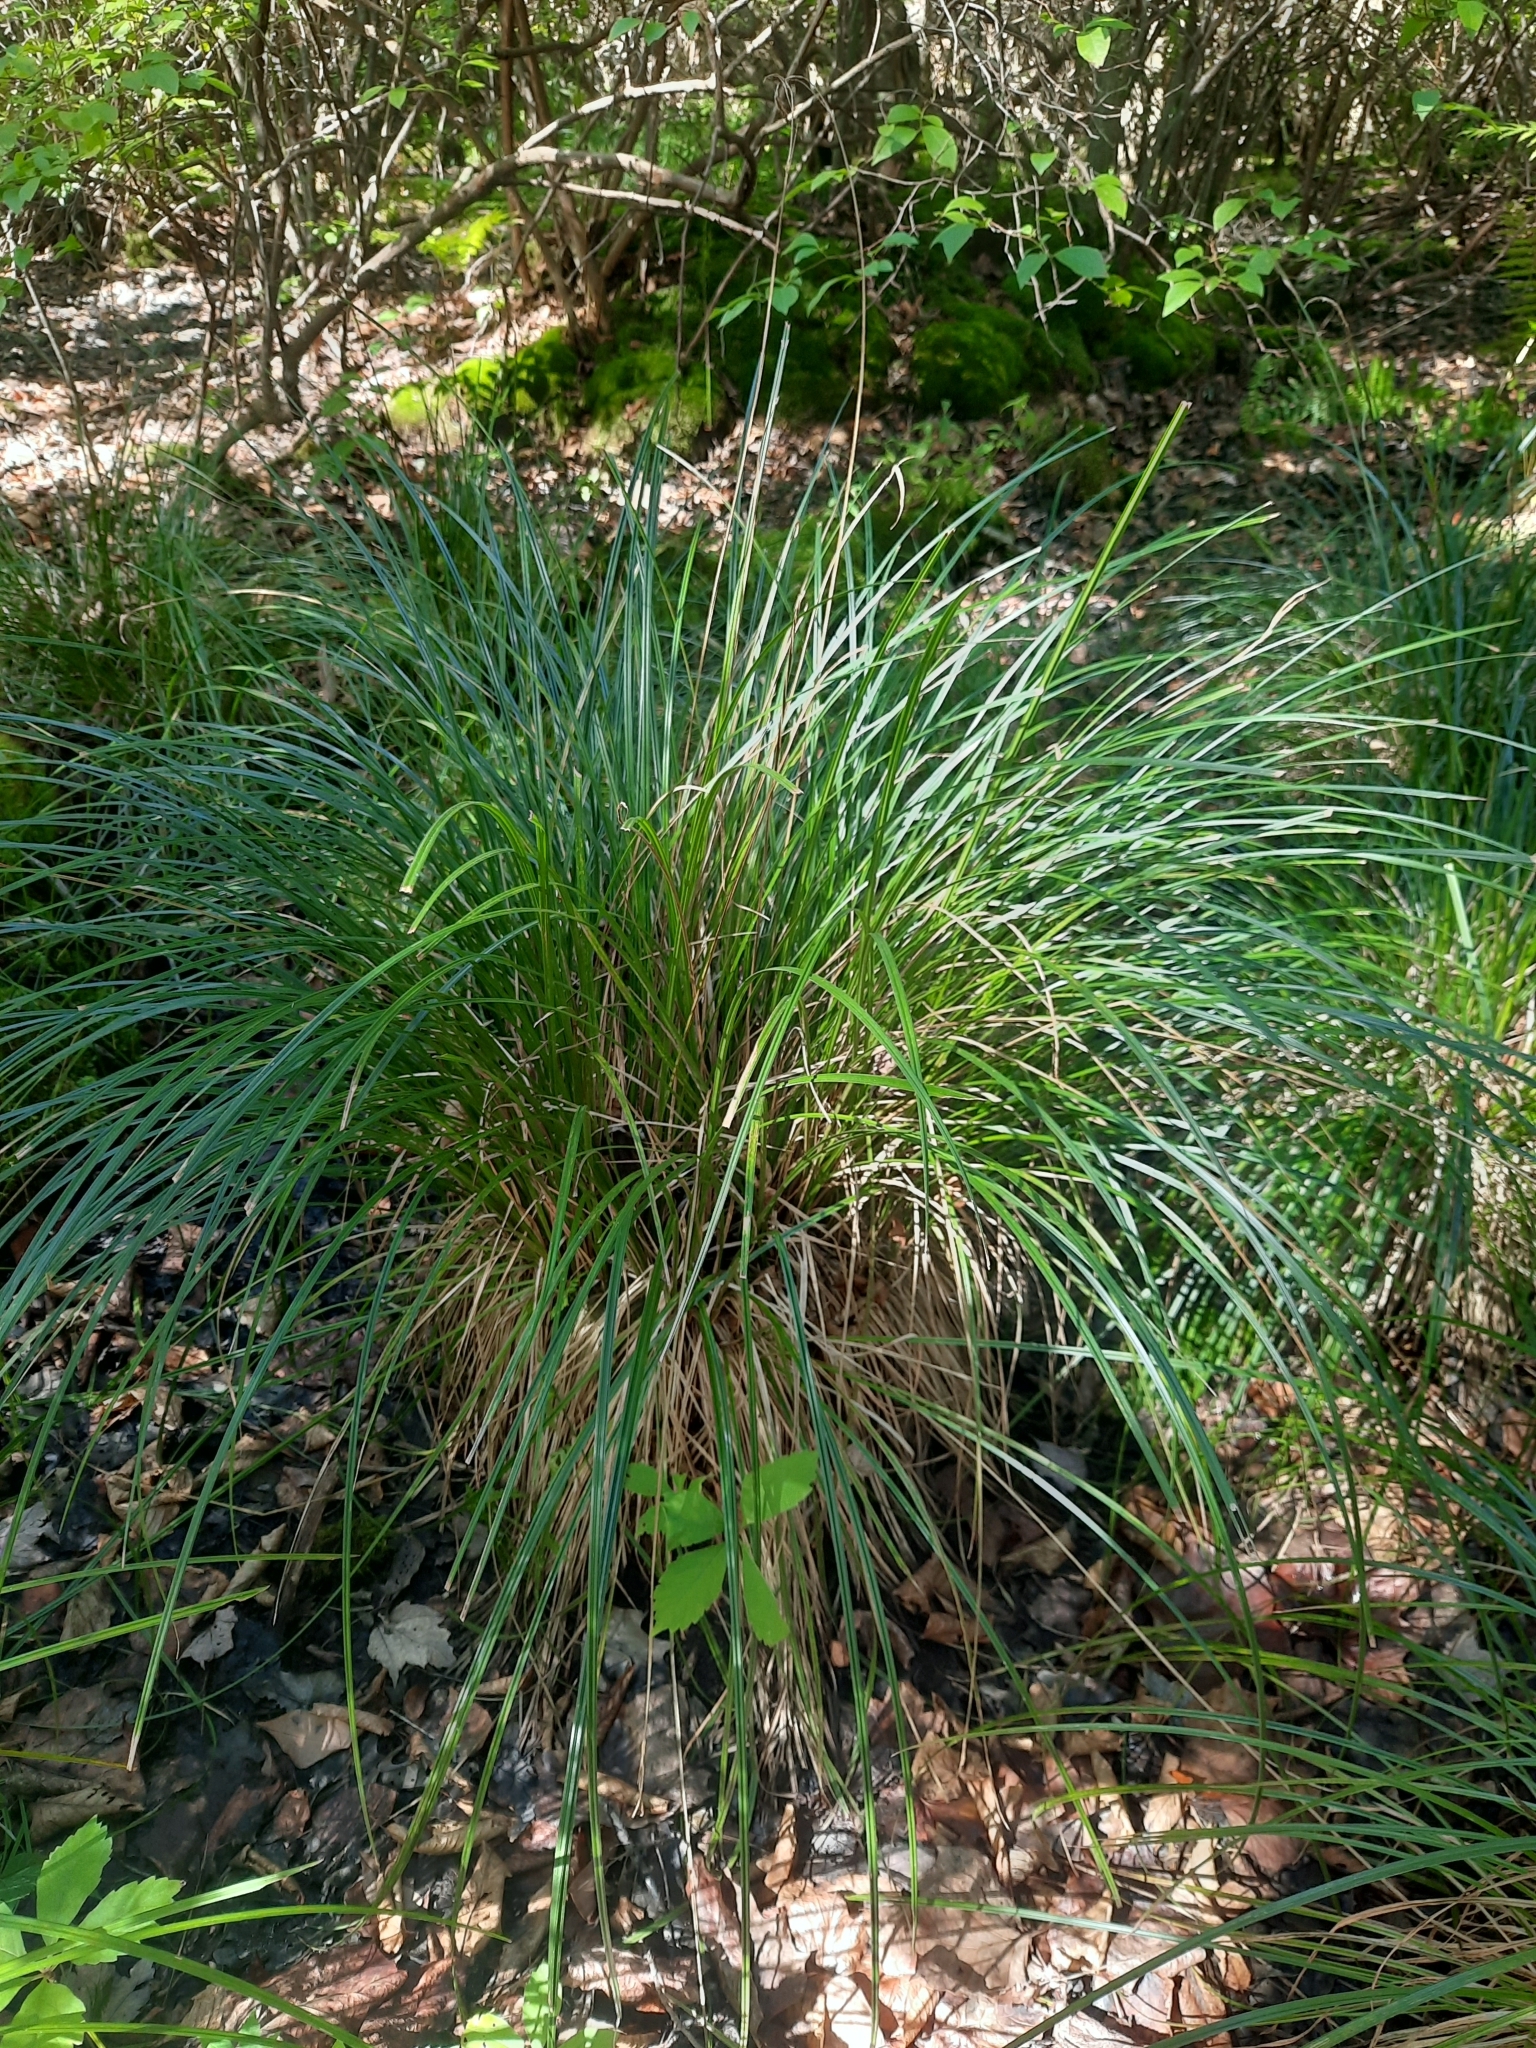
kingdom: Plantae
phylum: Tracheophyta
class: Liliopsida
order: Poales
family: Cyperaceae
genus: Carex
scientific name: Carex stricta
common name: Hummock sedge
